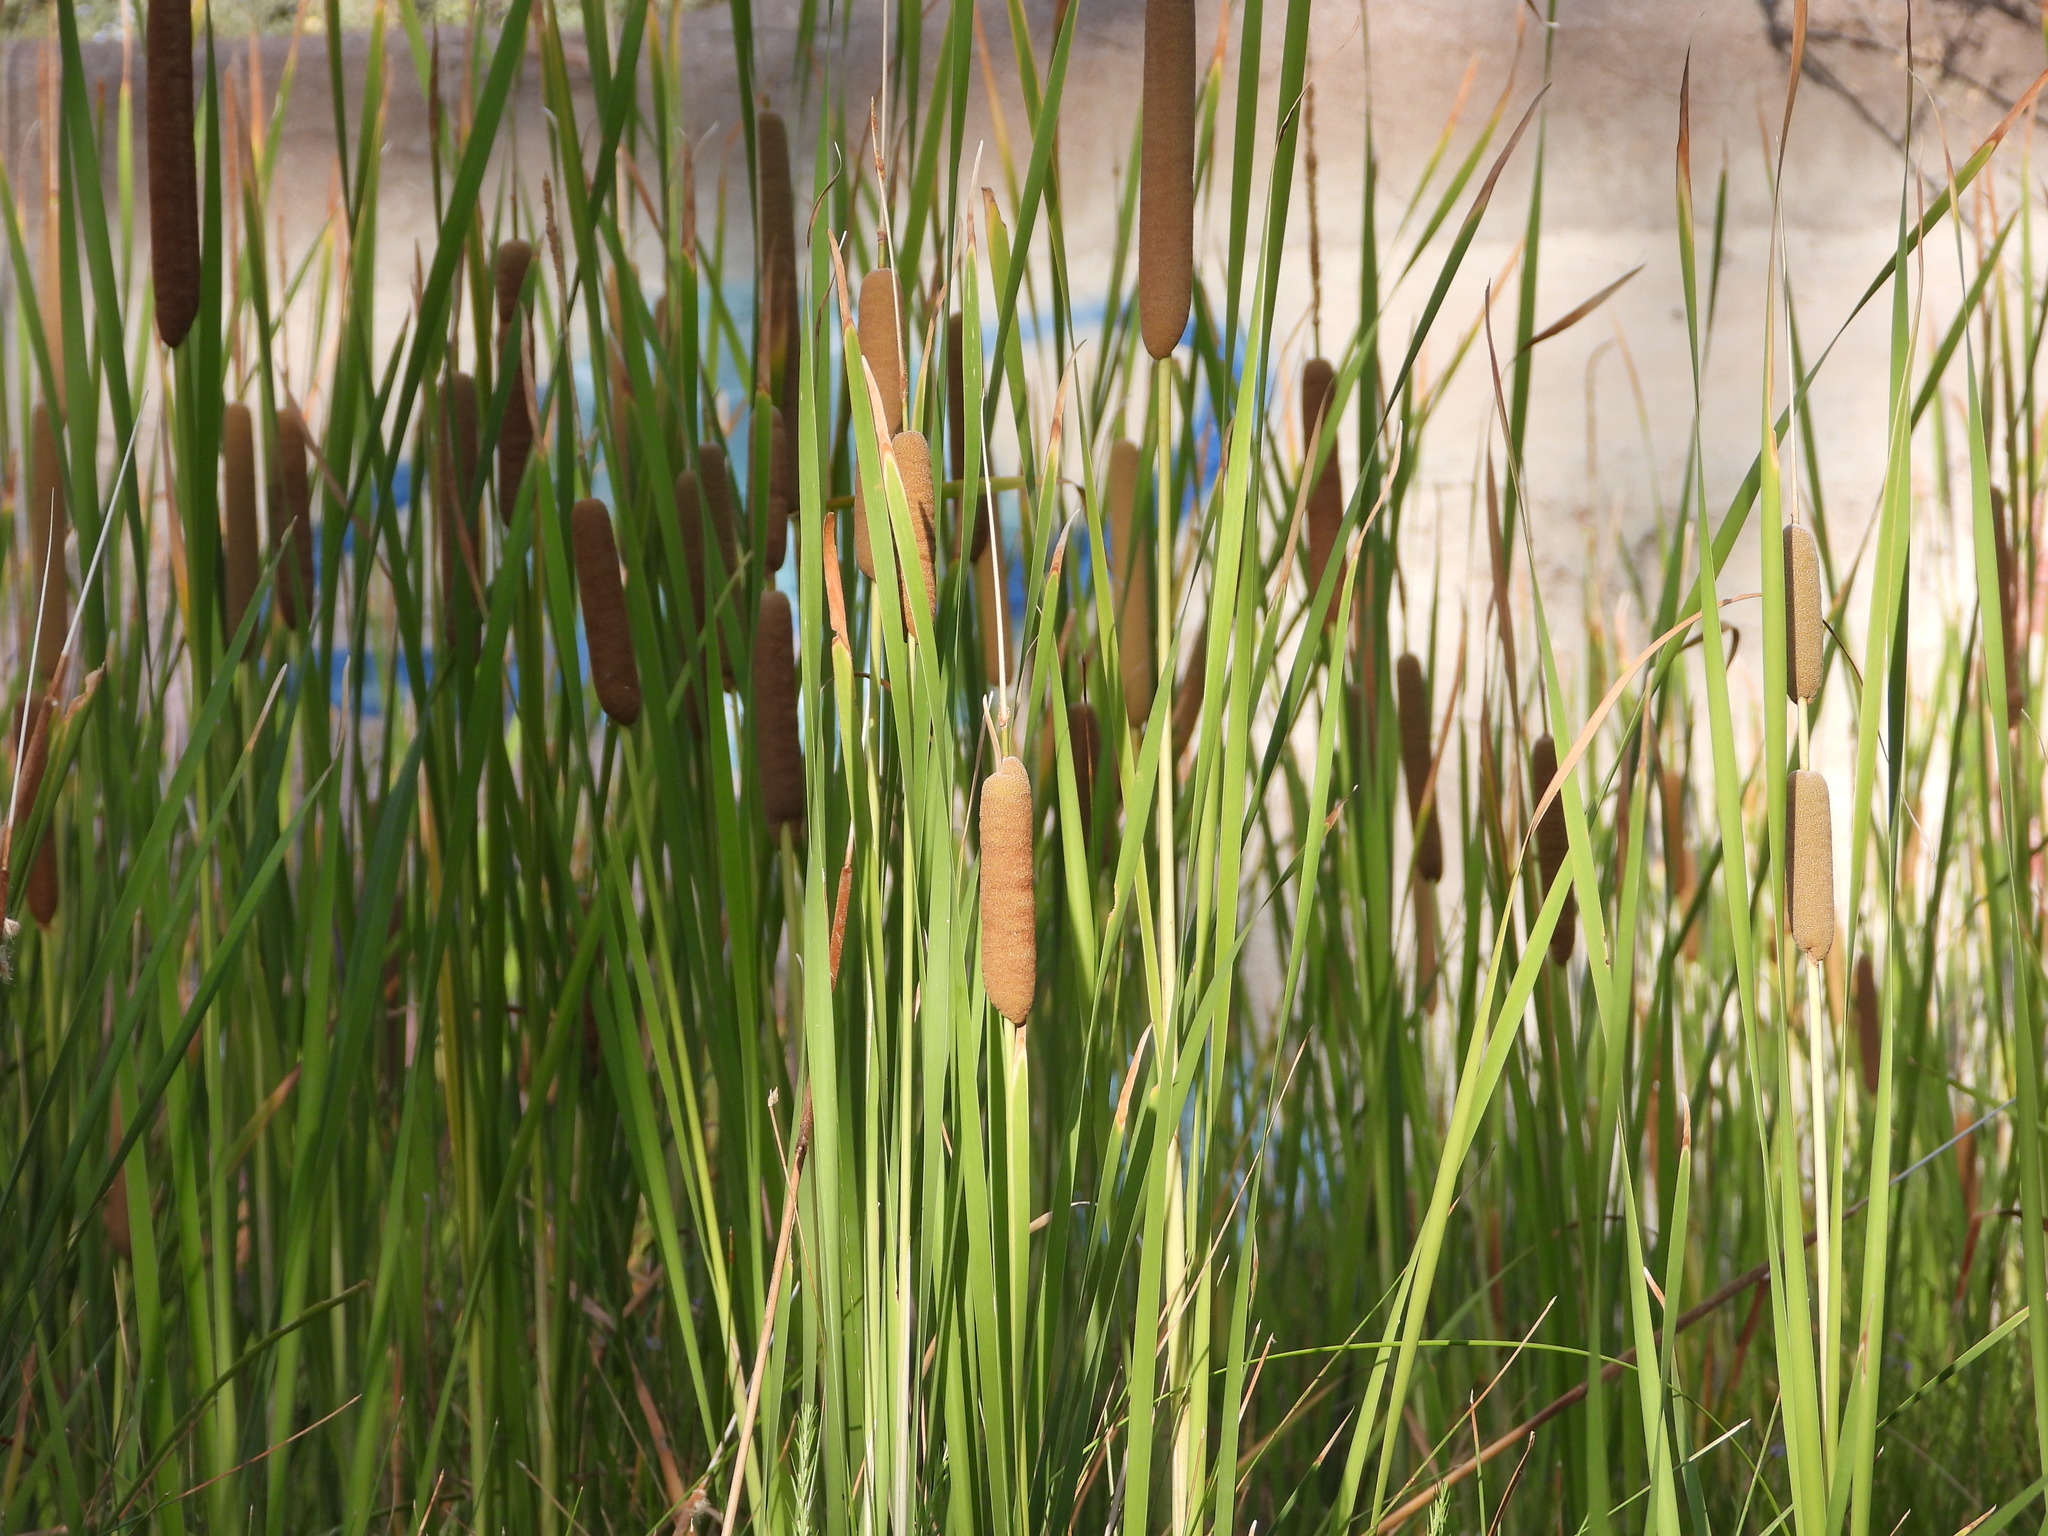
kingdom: Plantae
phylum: Tracheophyta
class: Liliopsida
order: Poales
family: Typhaceae
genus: Typha
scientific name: Typha latifolia
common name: Broadleaf cattail
